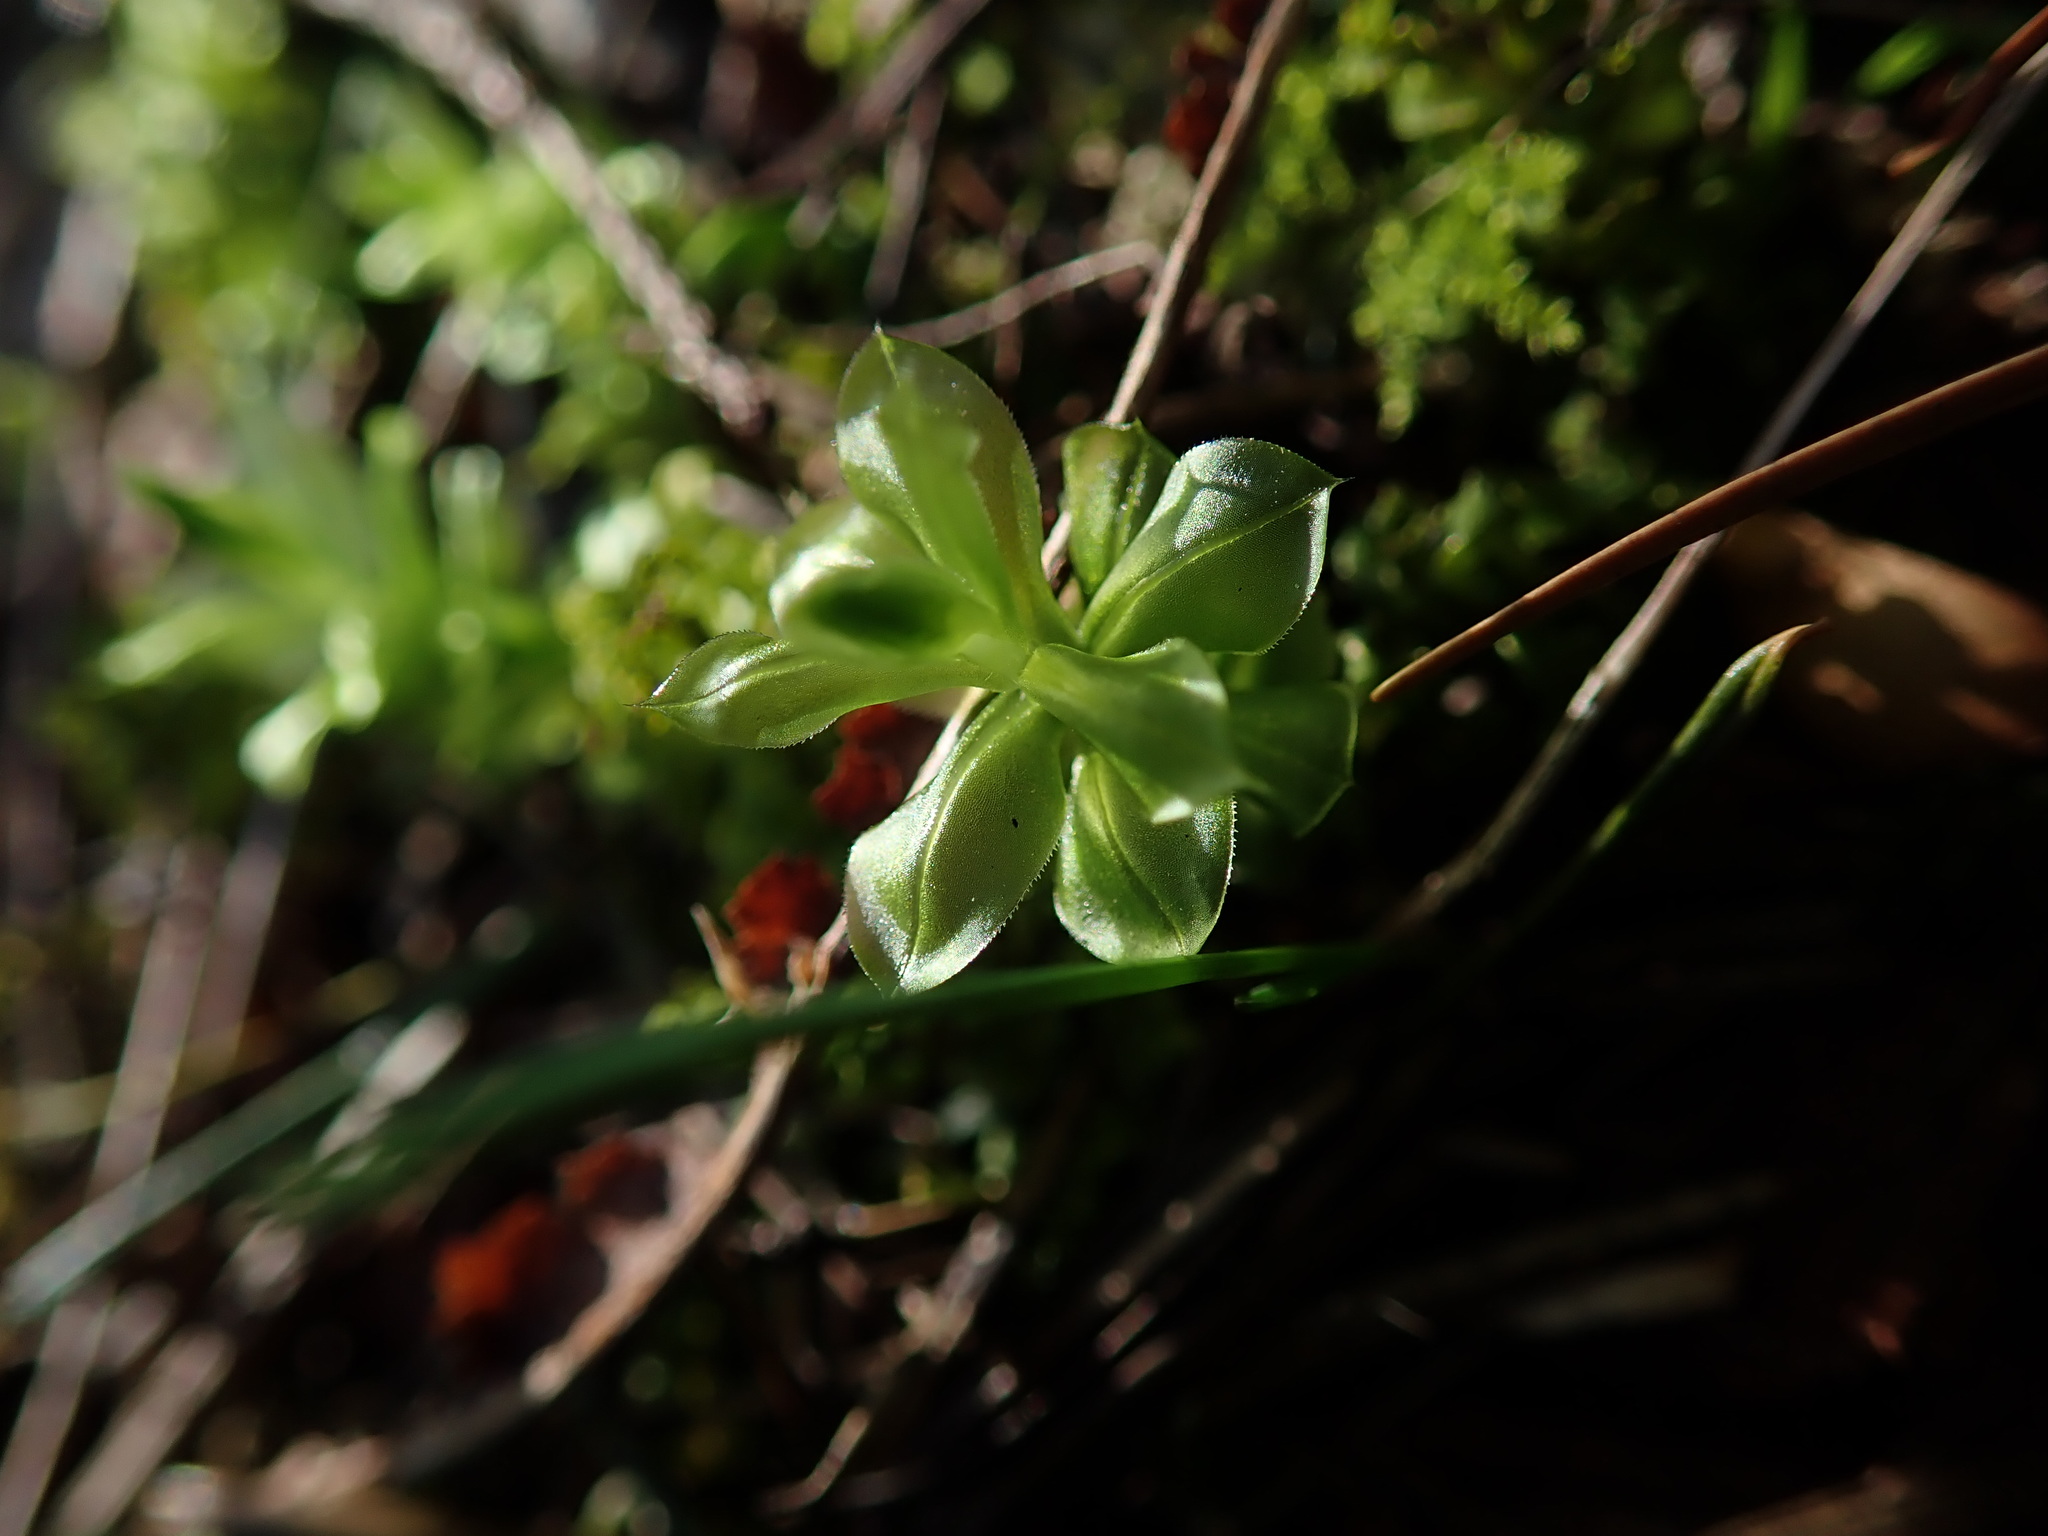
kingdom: Plantae
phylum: Bryophyta
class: Bryopsida
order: Bryales
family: Mniaceae
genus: Plagiomnium
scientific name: Plagiomnium insigne
